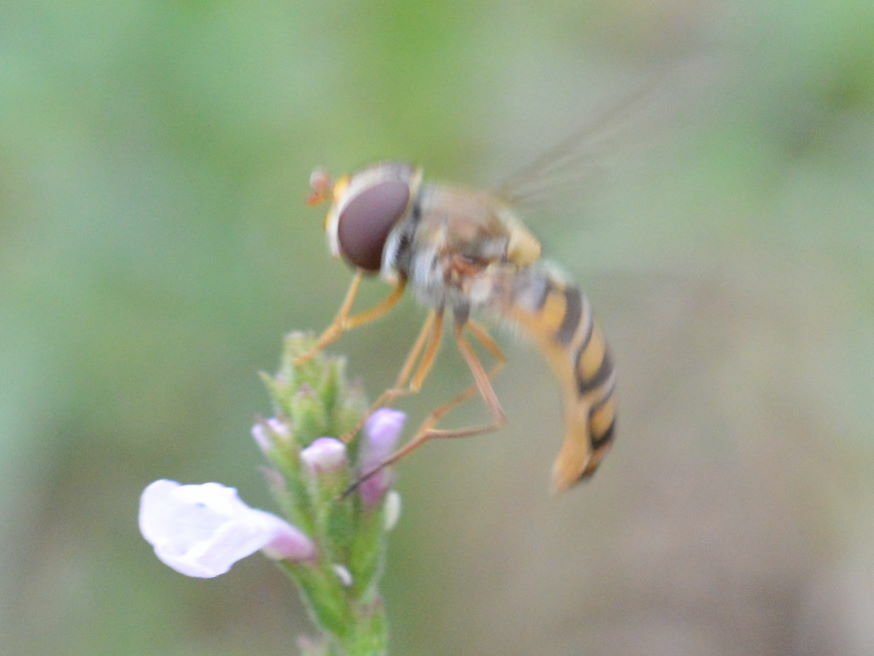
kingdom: Animalia
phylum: Arthropoda
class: Insecta
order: Diptera
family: Syrphidae
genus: Episyrphus
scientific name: Episyrphus balteatus
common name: Marmalade hoverfly
